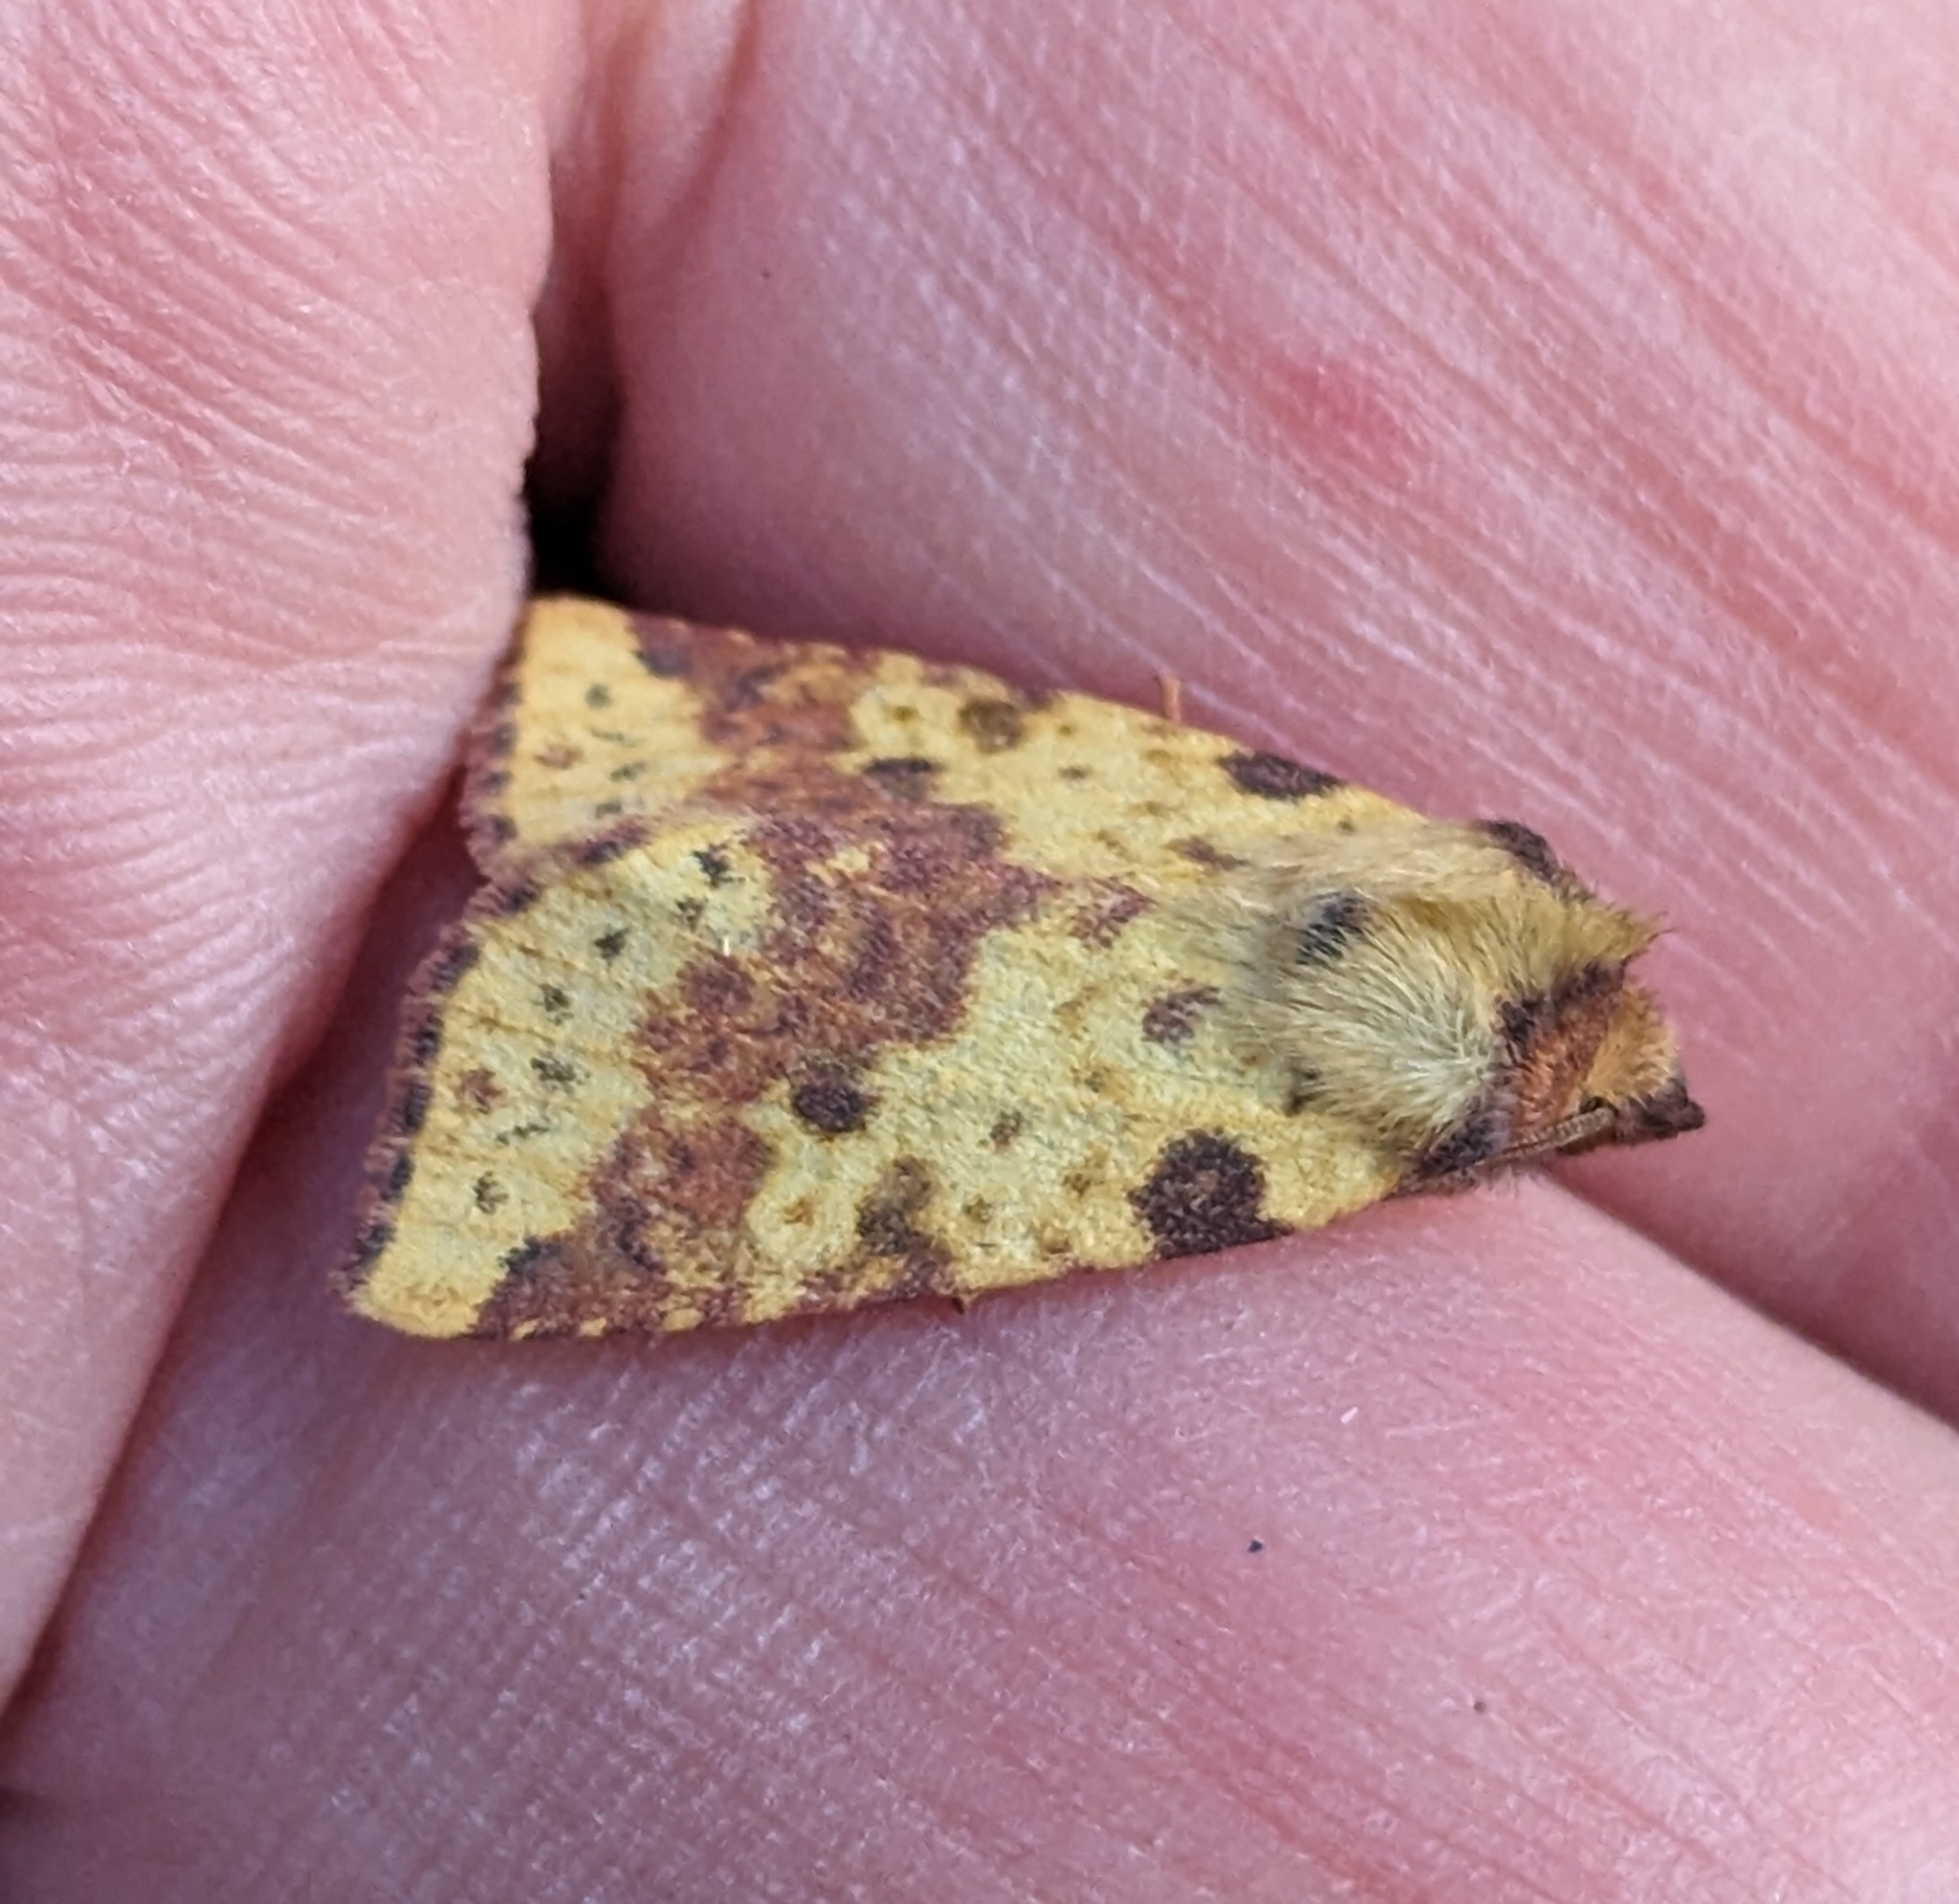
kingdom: Animalia
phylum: Arthropoda
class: Insecta
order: Lepidoptera
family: Noctuidae
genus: Xanthia
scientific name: Xanthia tatago
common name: Pink-banded sallow
